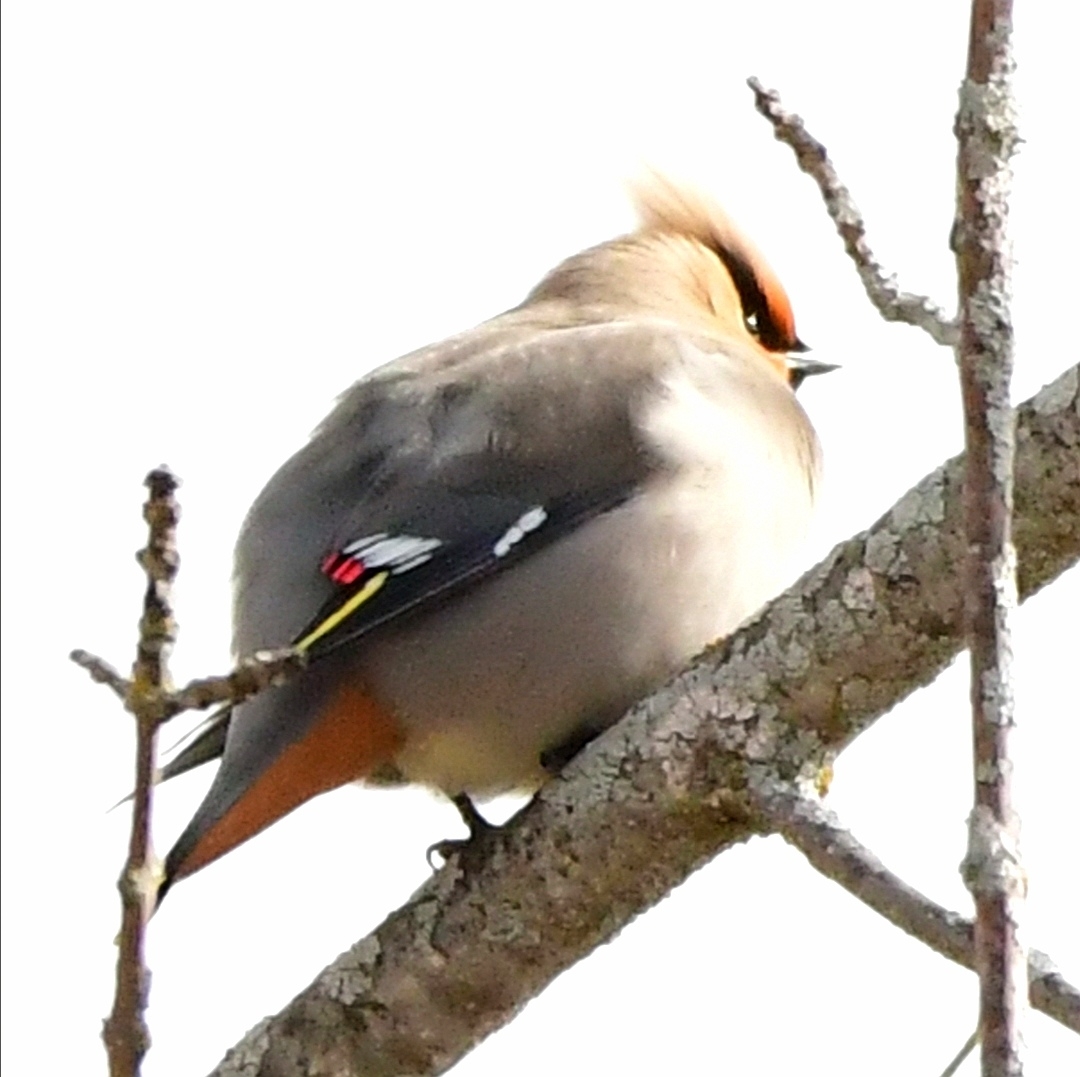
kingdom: Animalia
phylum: Chordata
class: Aves
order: Passeriformes
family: Bombycillidae
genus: Bombycilla
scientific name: Bombycilla garrulus
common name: Bohemian waxwing
